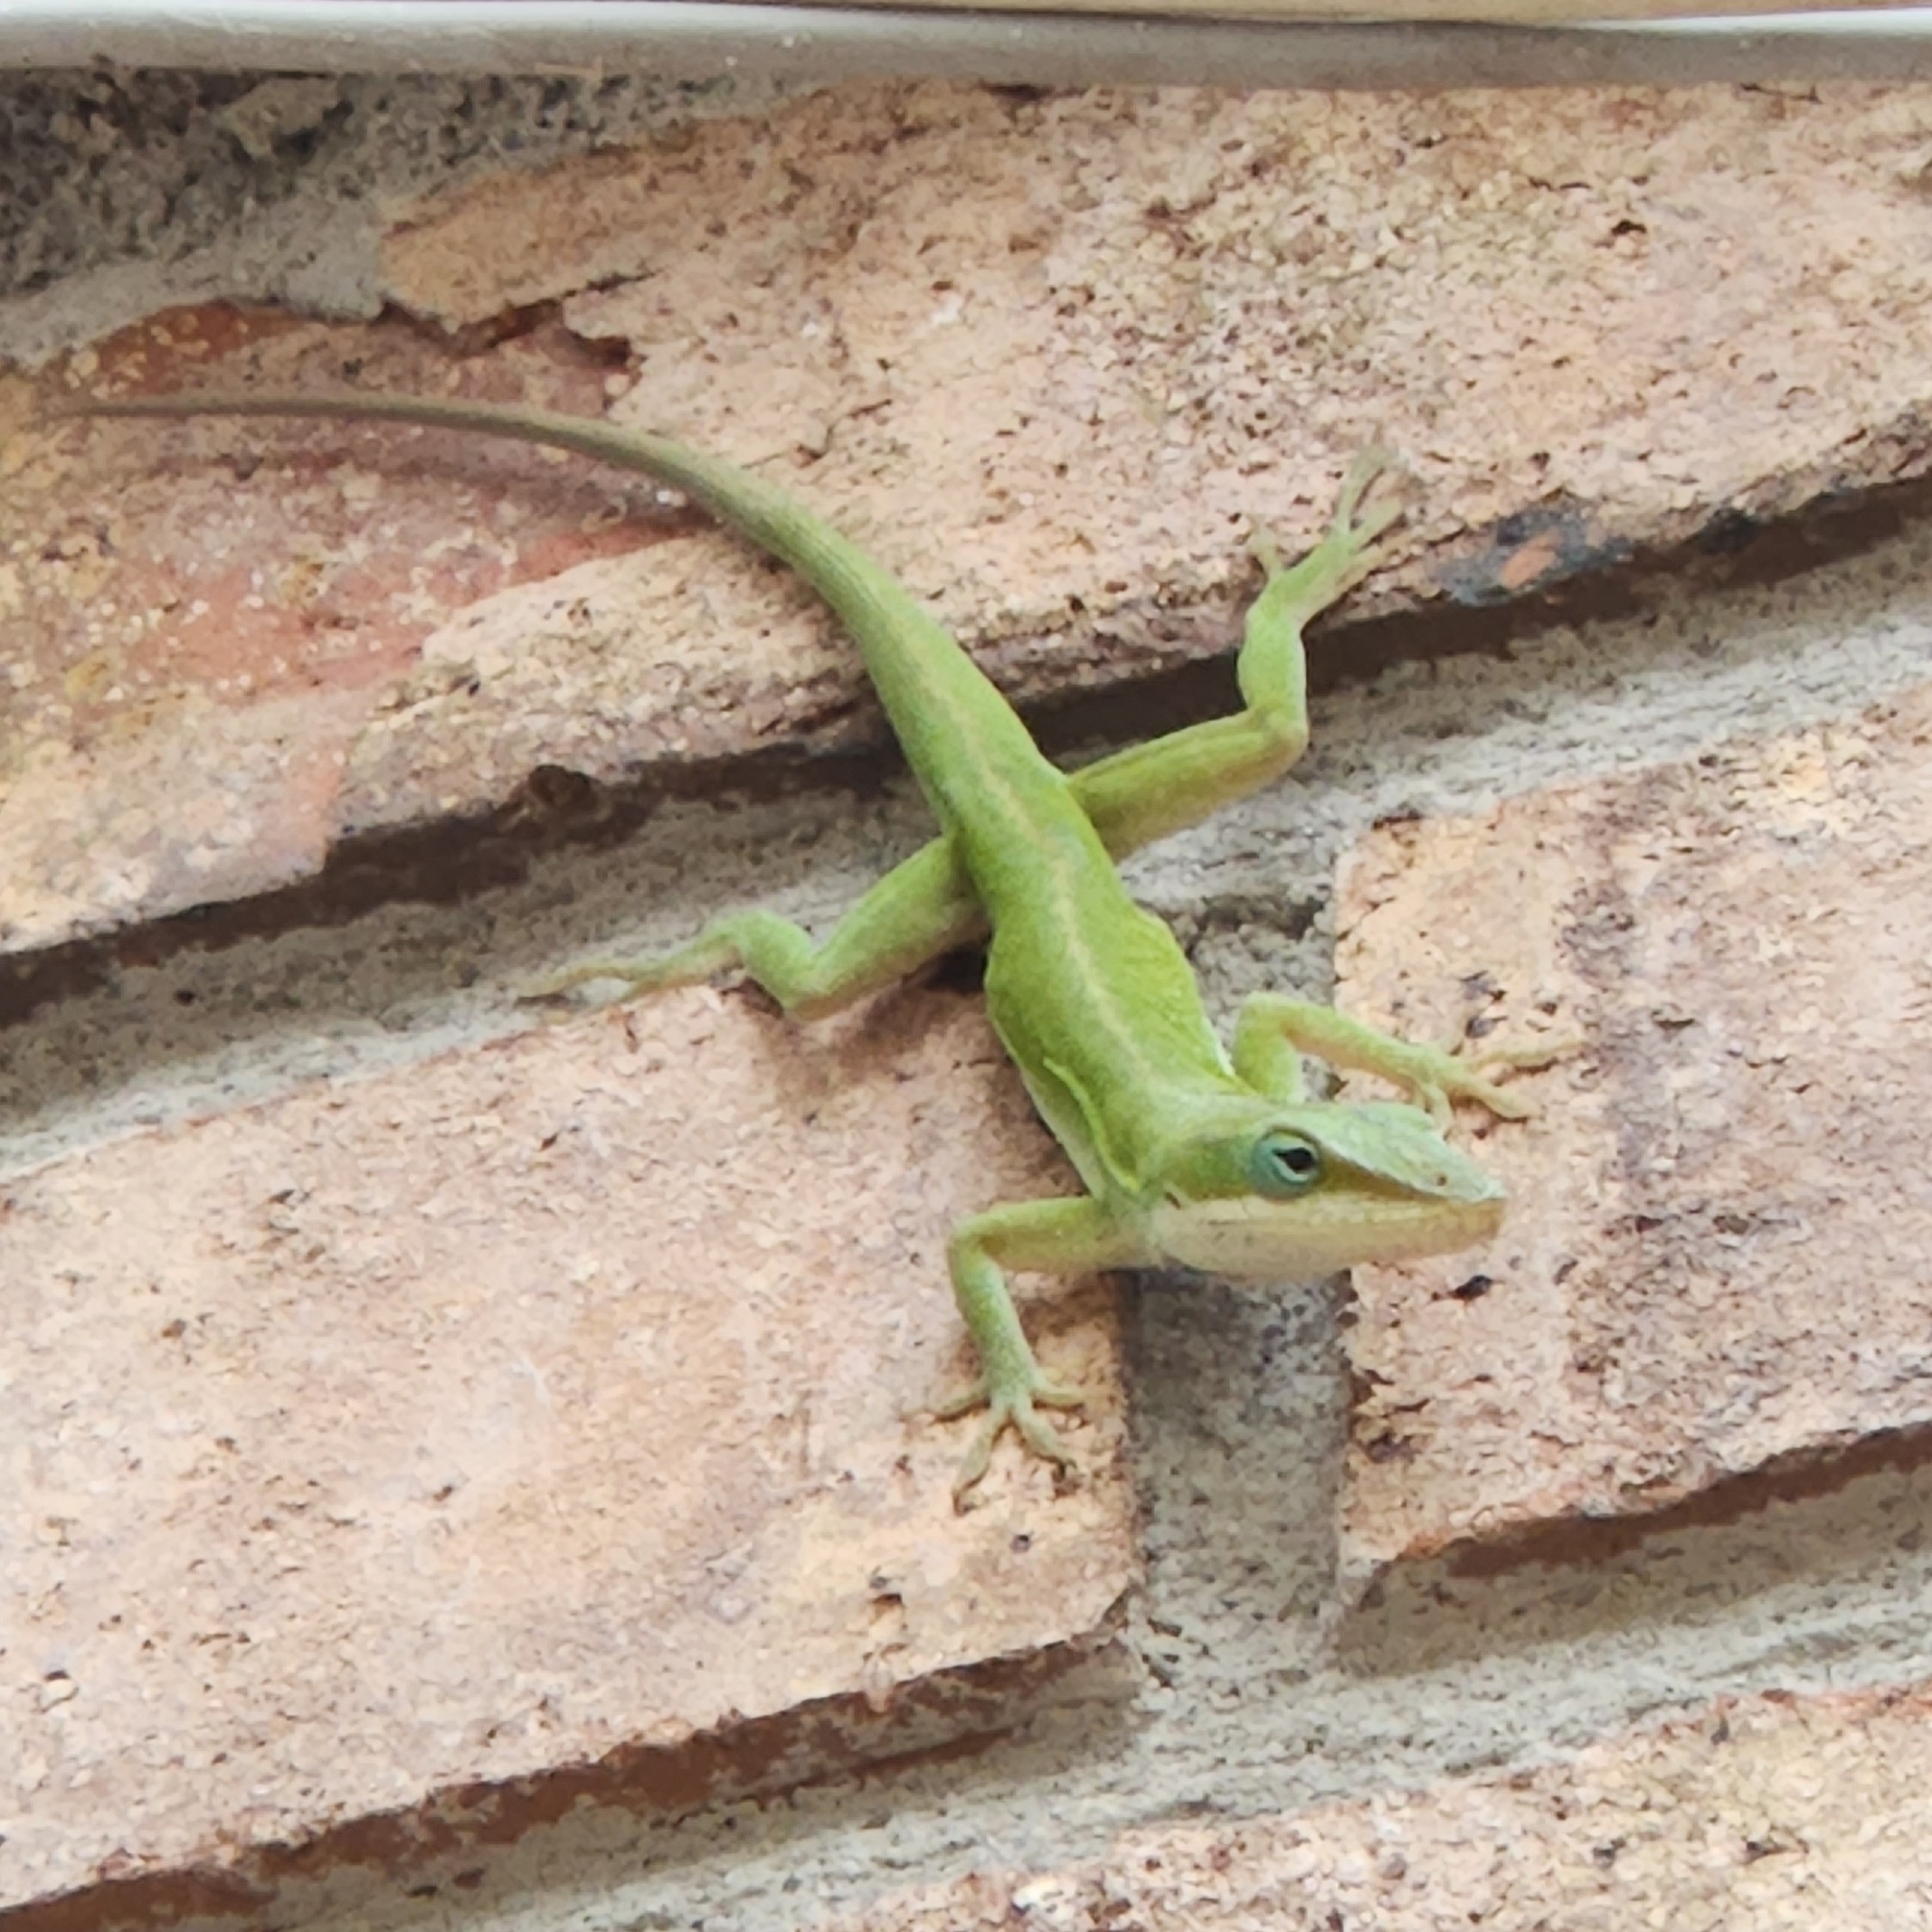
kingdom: Animalia
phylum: Chordata
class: Squamata
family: Dactyloidae
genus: Anolis
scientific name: Anolis carolinensis
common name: Green anole
